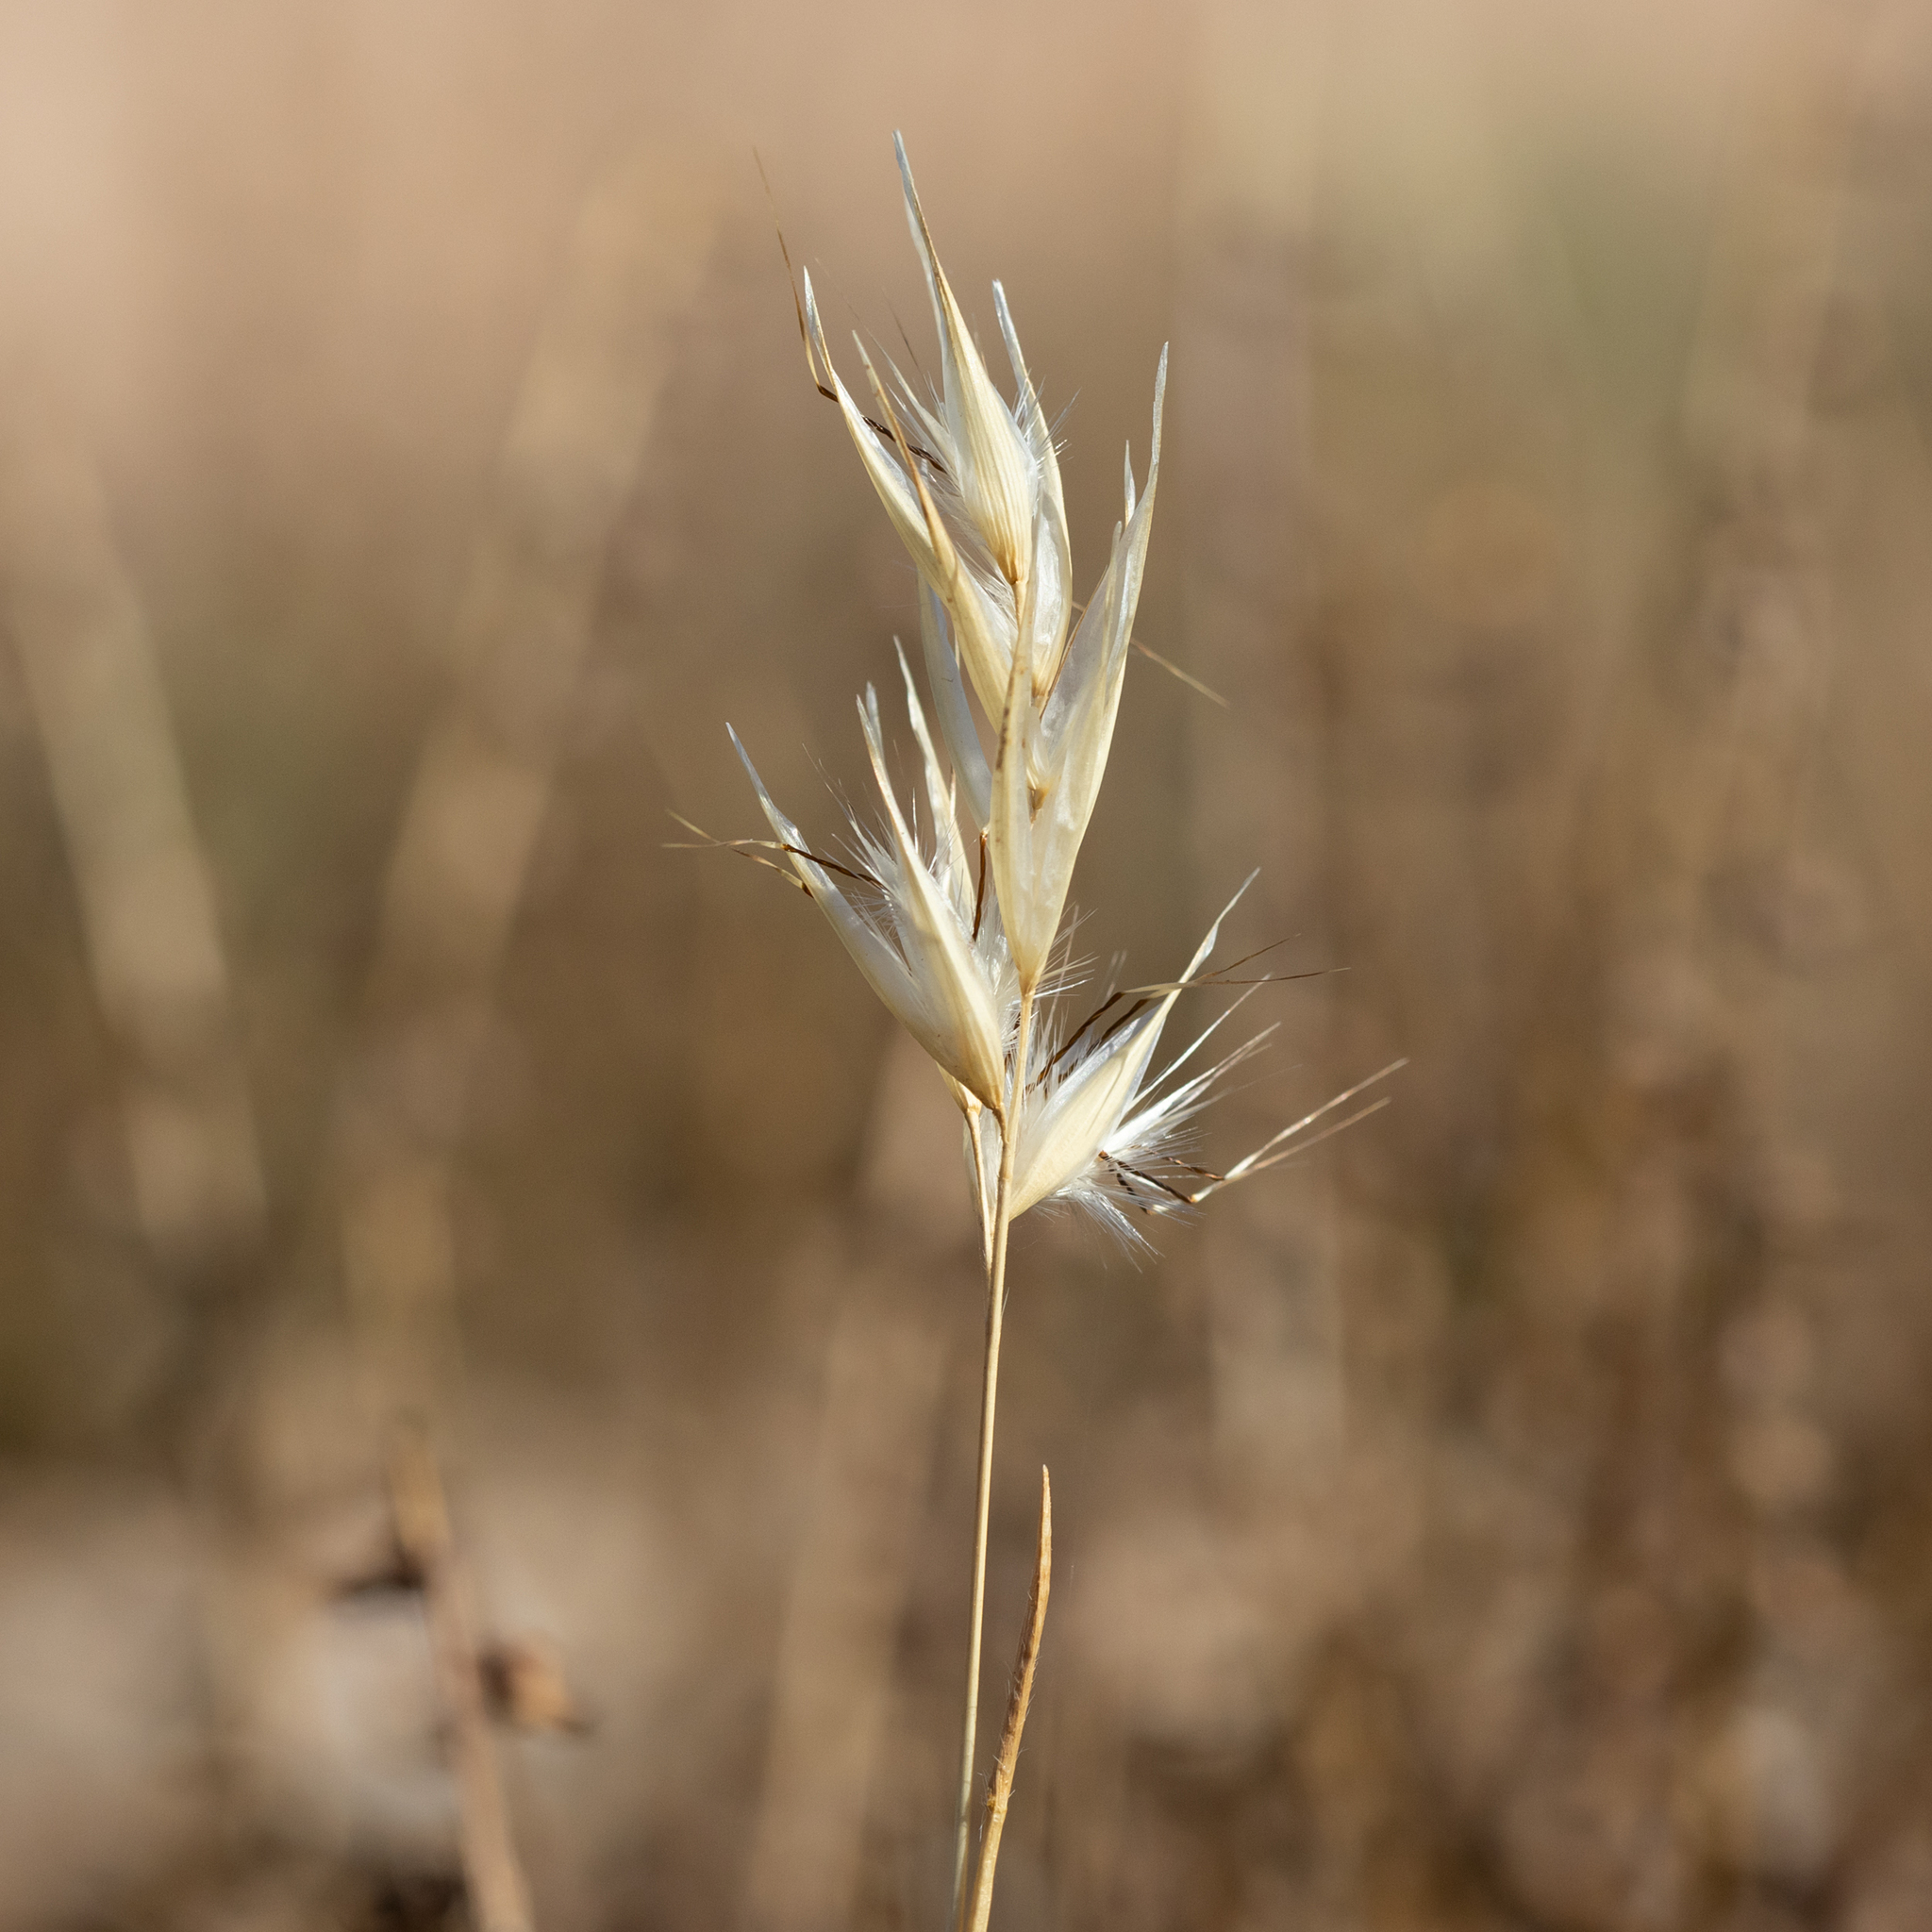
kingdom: Plantae
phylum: Tracheophyta
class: Liliopsida
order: Poales
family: Poaceae
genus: Rytidosperma
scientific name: Rytidosperma caespitosum
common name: Tufted wallaby grass
